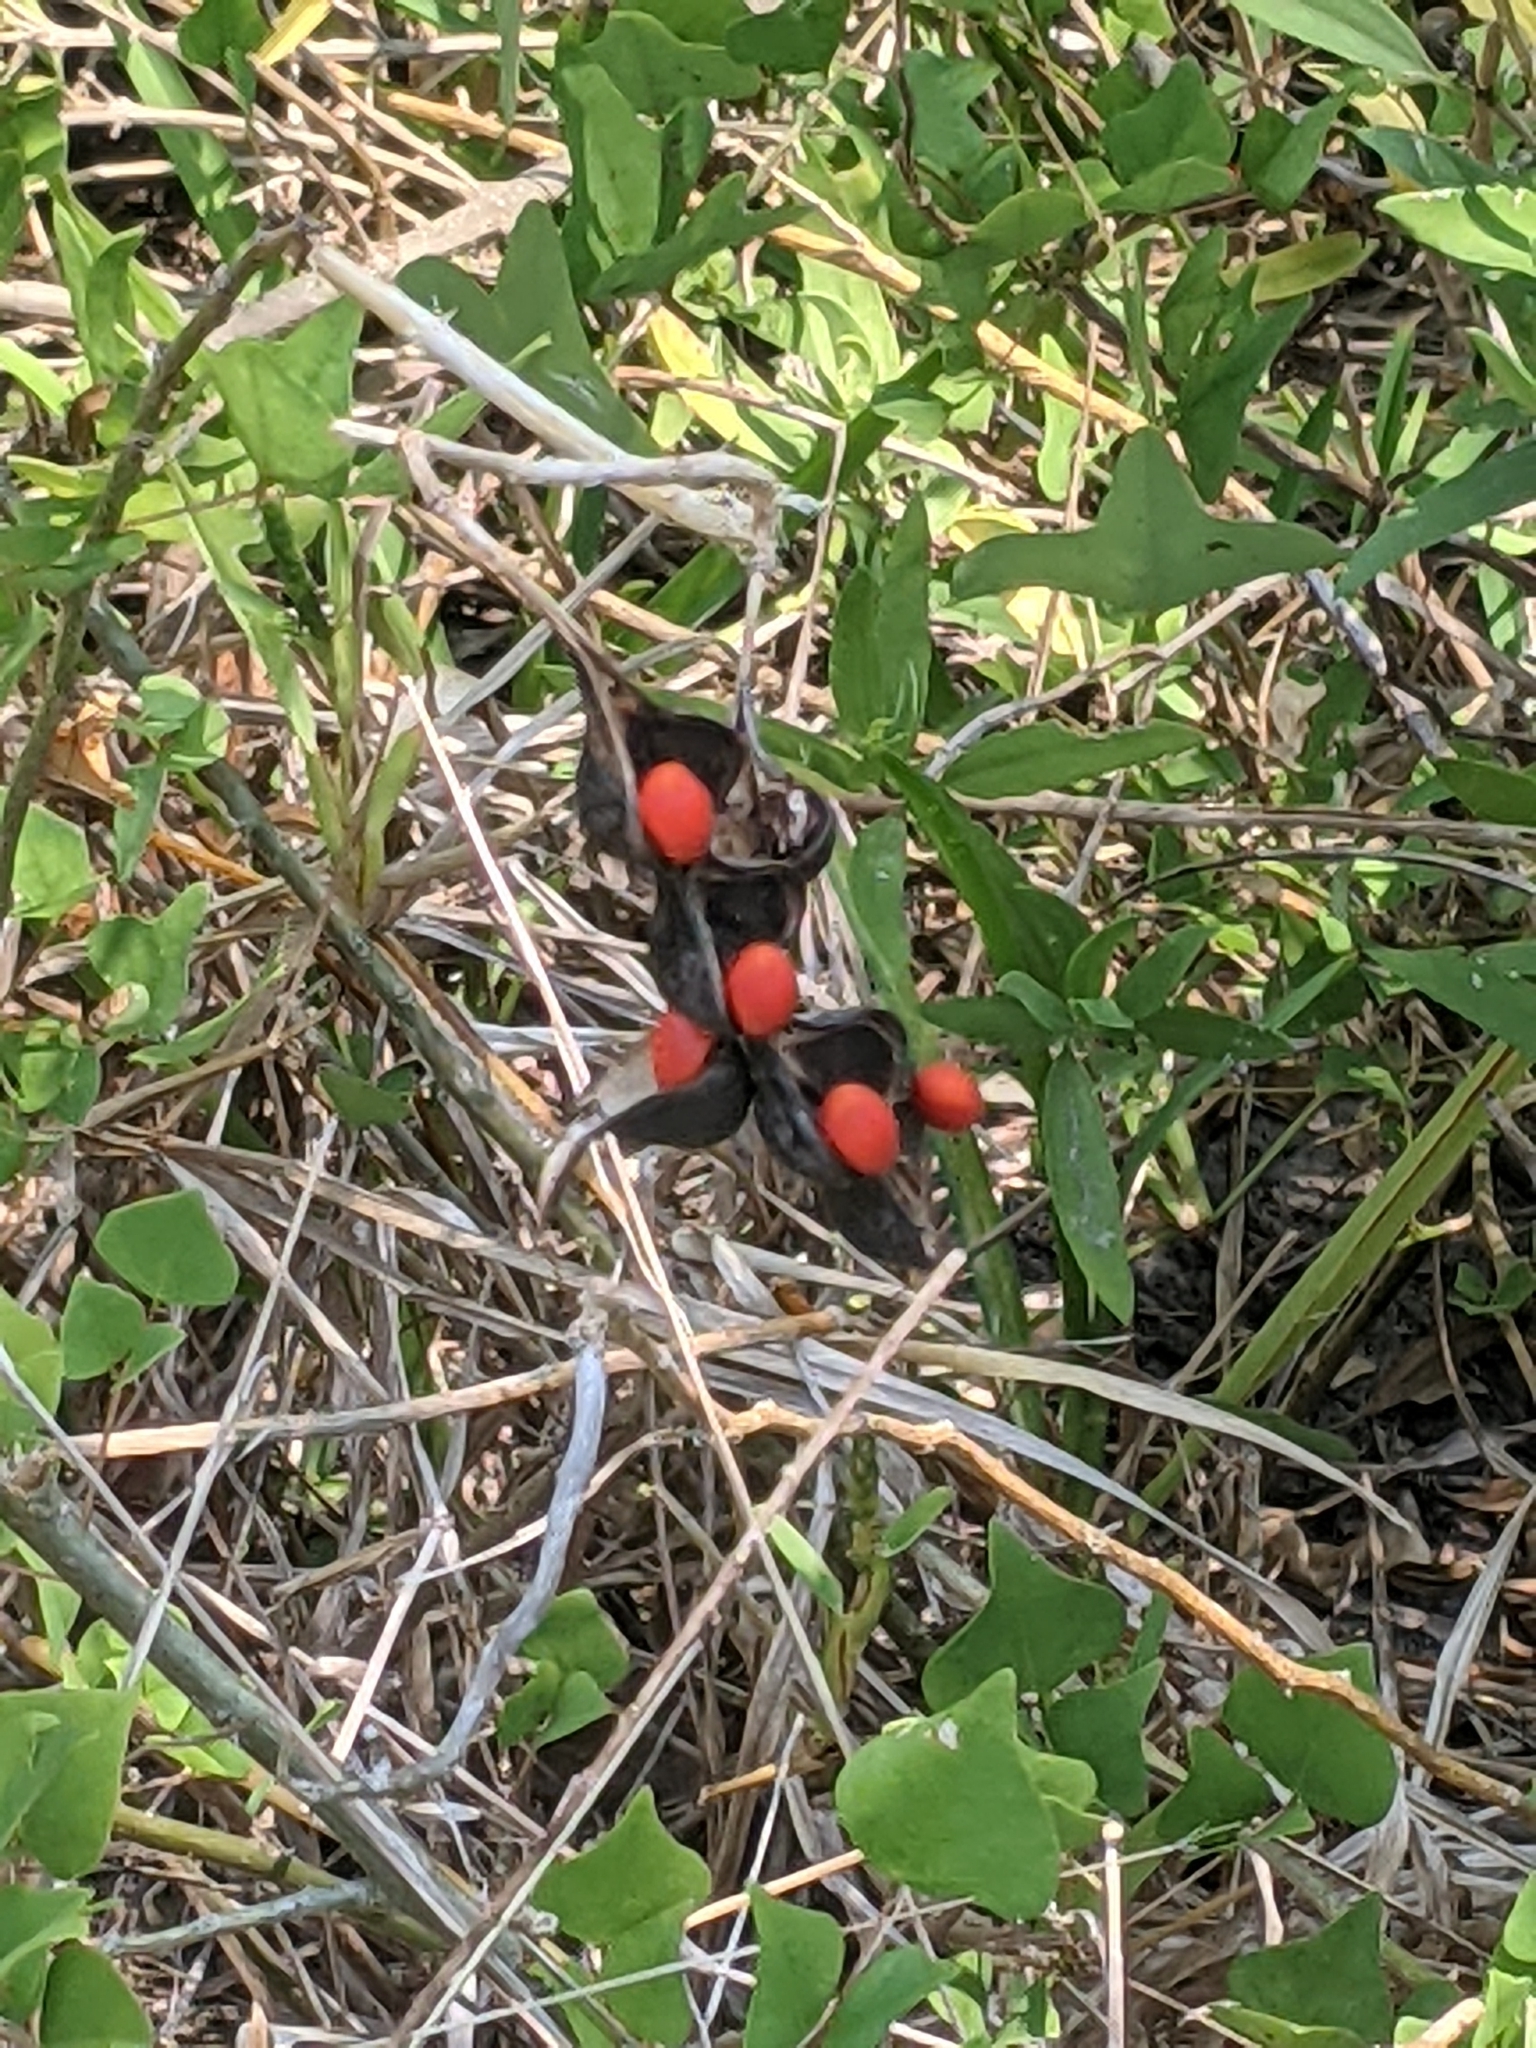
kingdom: Plantae
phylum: Tracheophyta
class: Magnoliopsida
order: Fabales
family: Fabaceae
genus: Erythrina
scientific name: Erythrina herbacea
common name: Coral-bean
